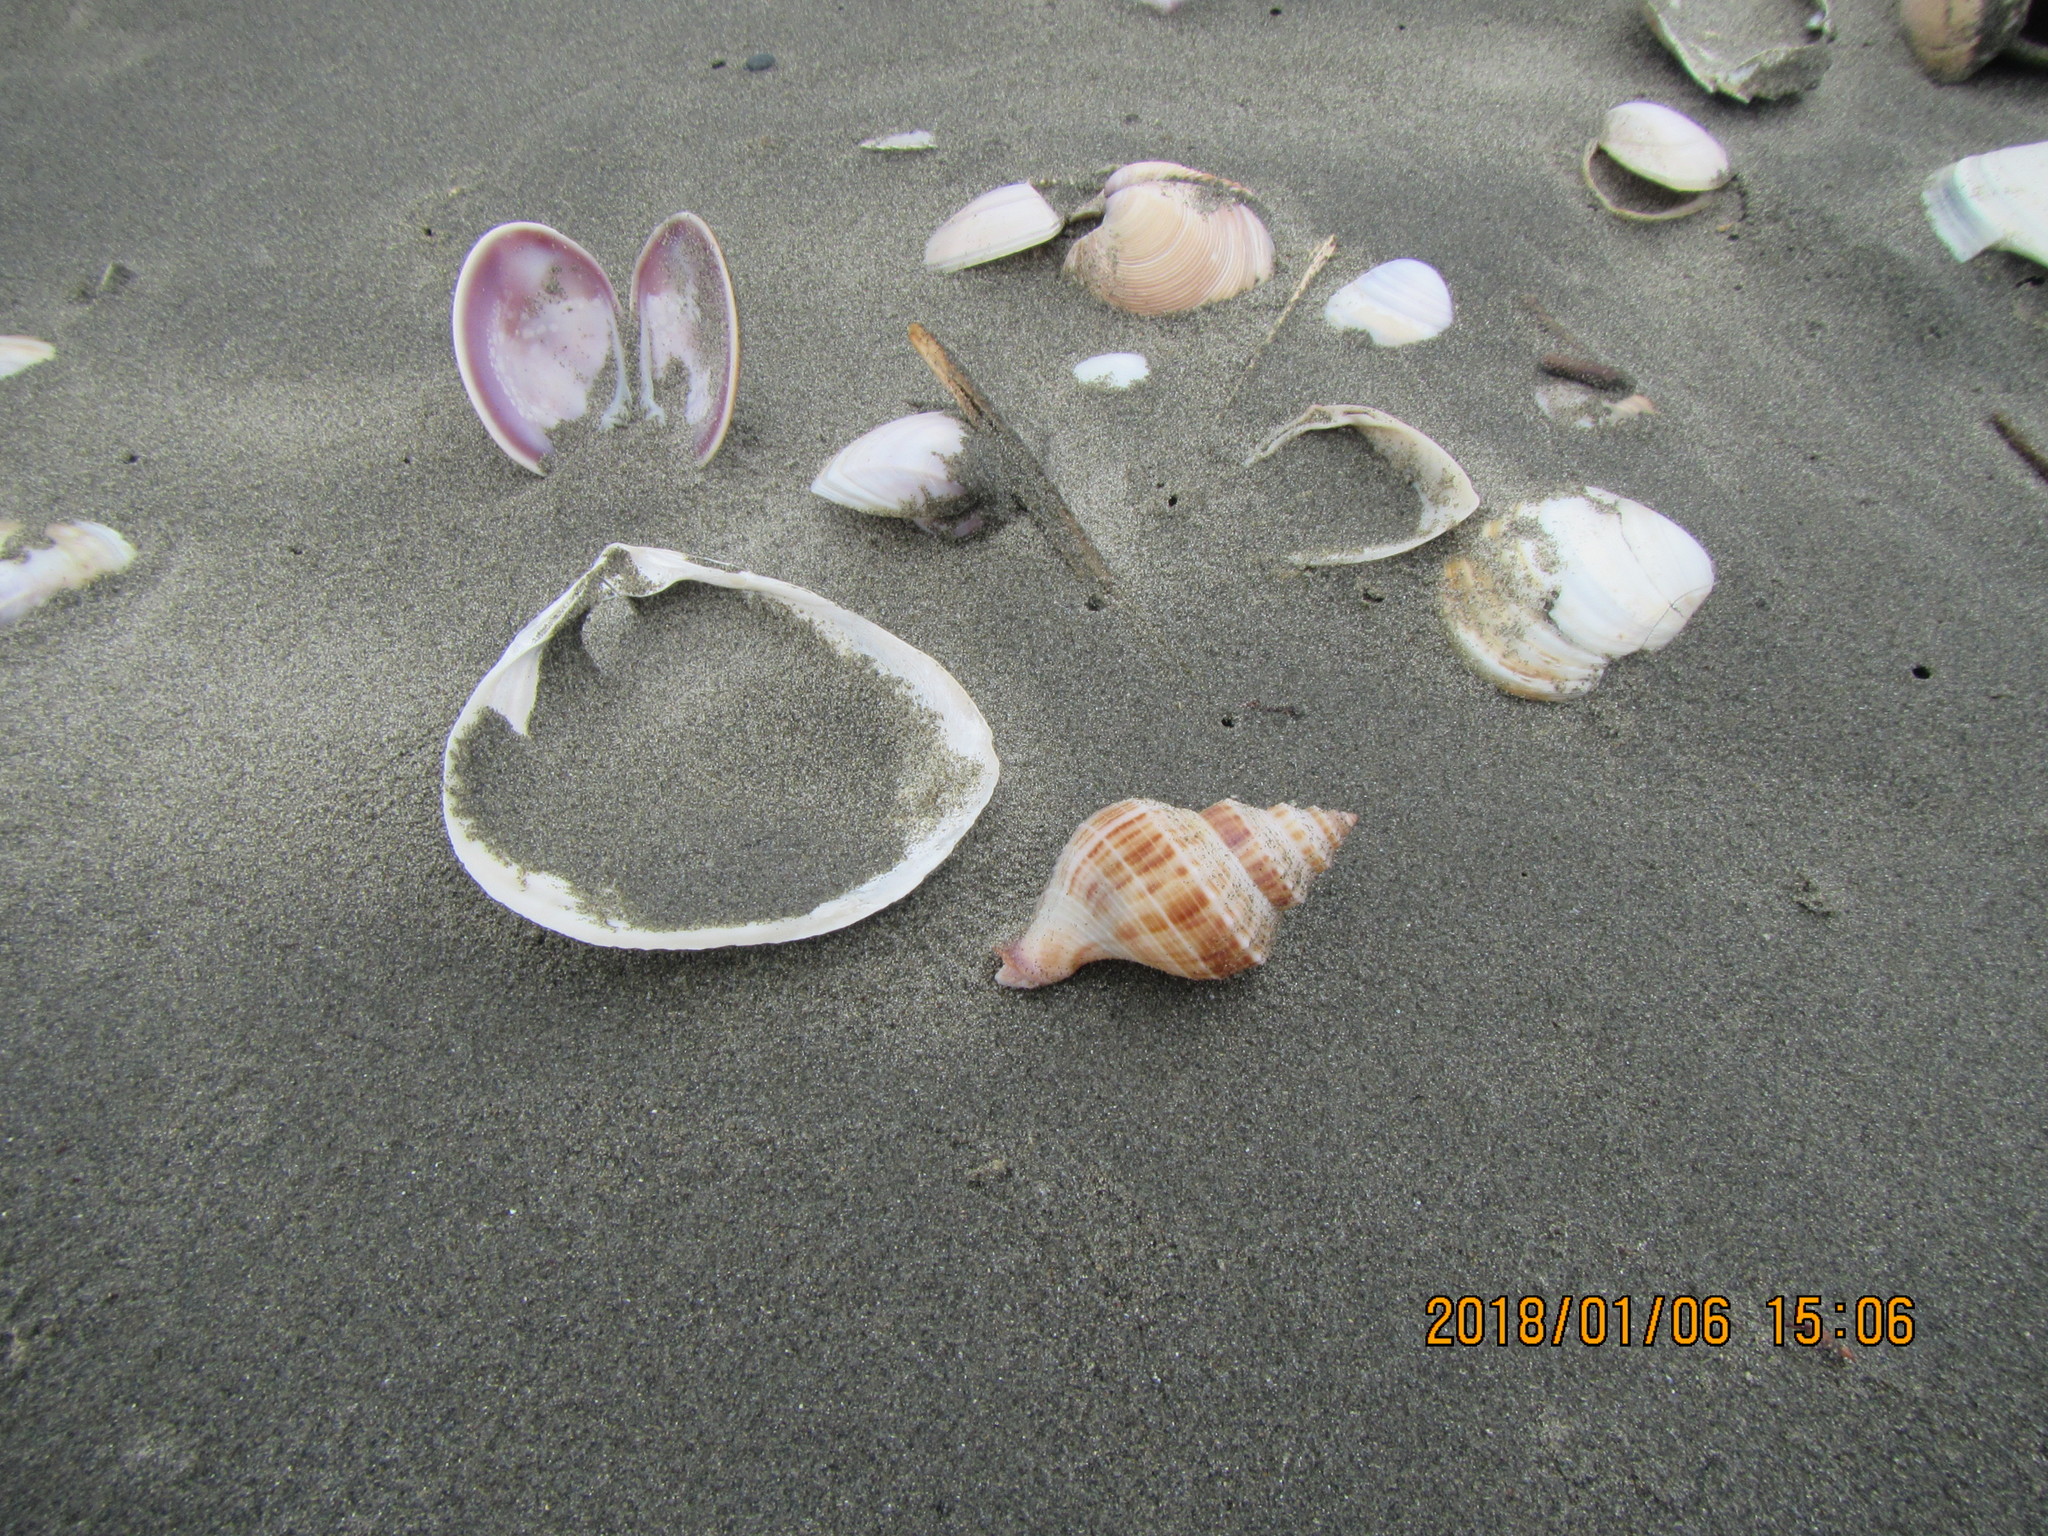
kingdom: Animalia
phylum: Mollusca
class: Gastropoda
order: Neogastropoda
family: Prosiphonidae
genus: Austrofusus
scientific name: Austrofusus glans
